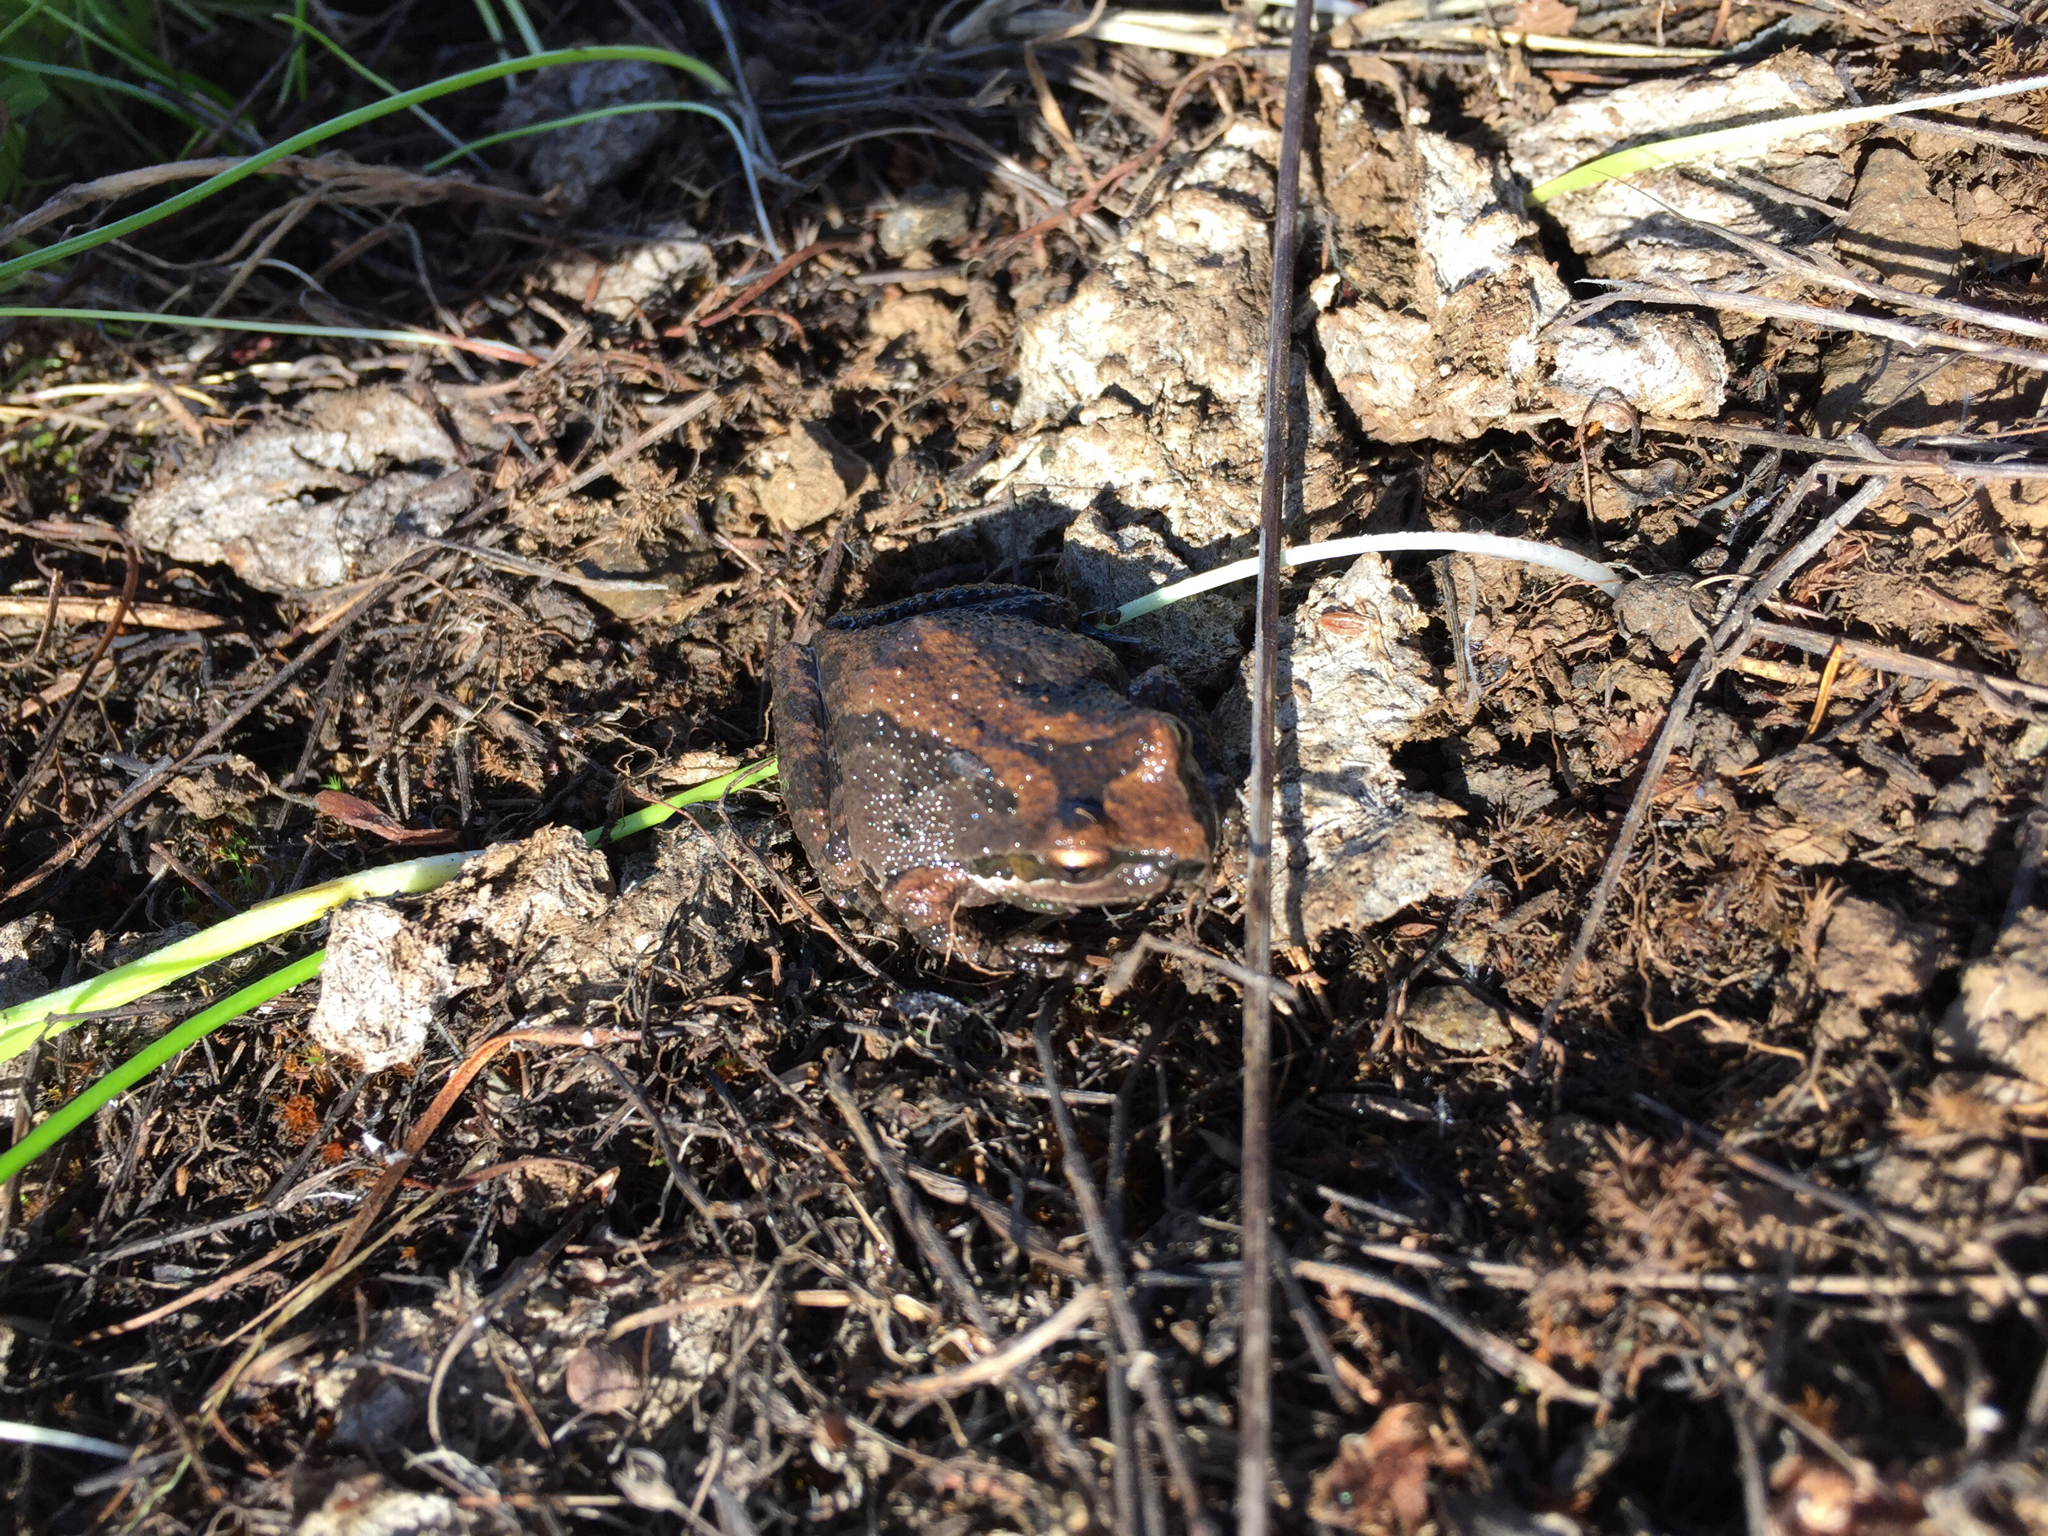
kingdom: Animalia
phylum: Chordata
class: Amphibia
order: Anura
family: Hylidae
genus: Pseudacris
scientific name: Pseudacris regilla
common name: Pacific chorus frog
